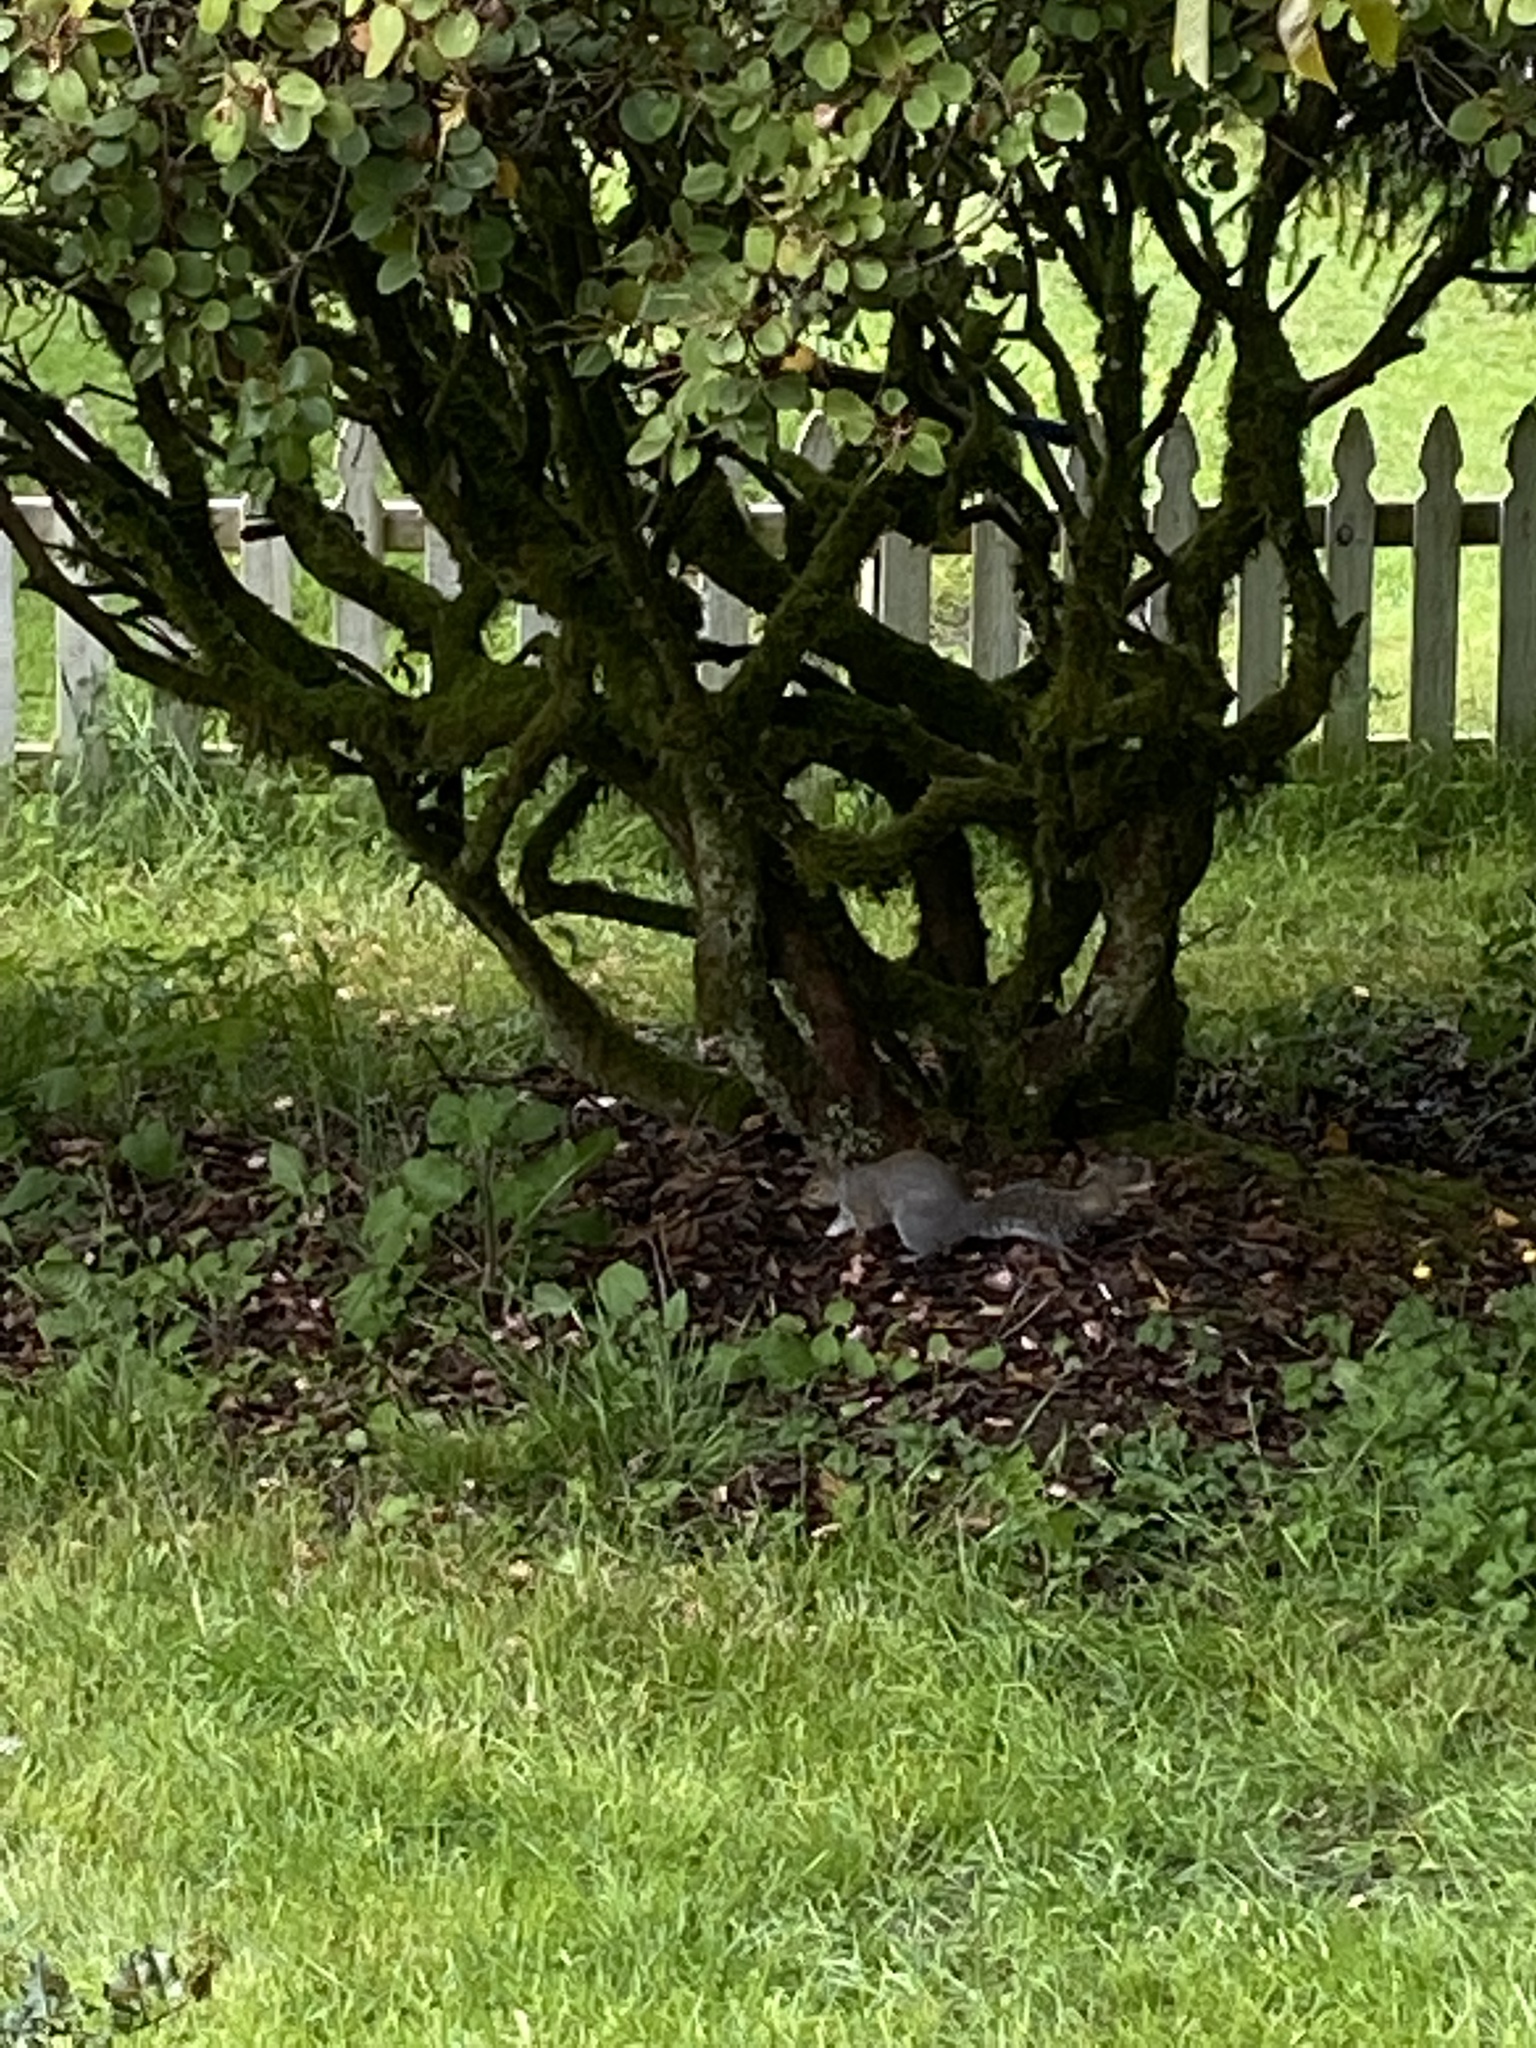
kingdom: Animalia
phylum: Chordata
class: Mammalia
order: Rodentia
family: Sciuridae
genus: Sciurus
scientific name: Sciurus carolinensis
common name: Eastern gray squirrel
